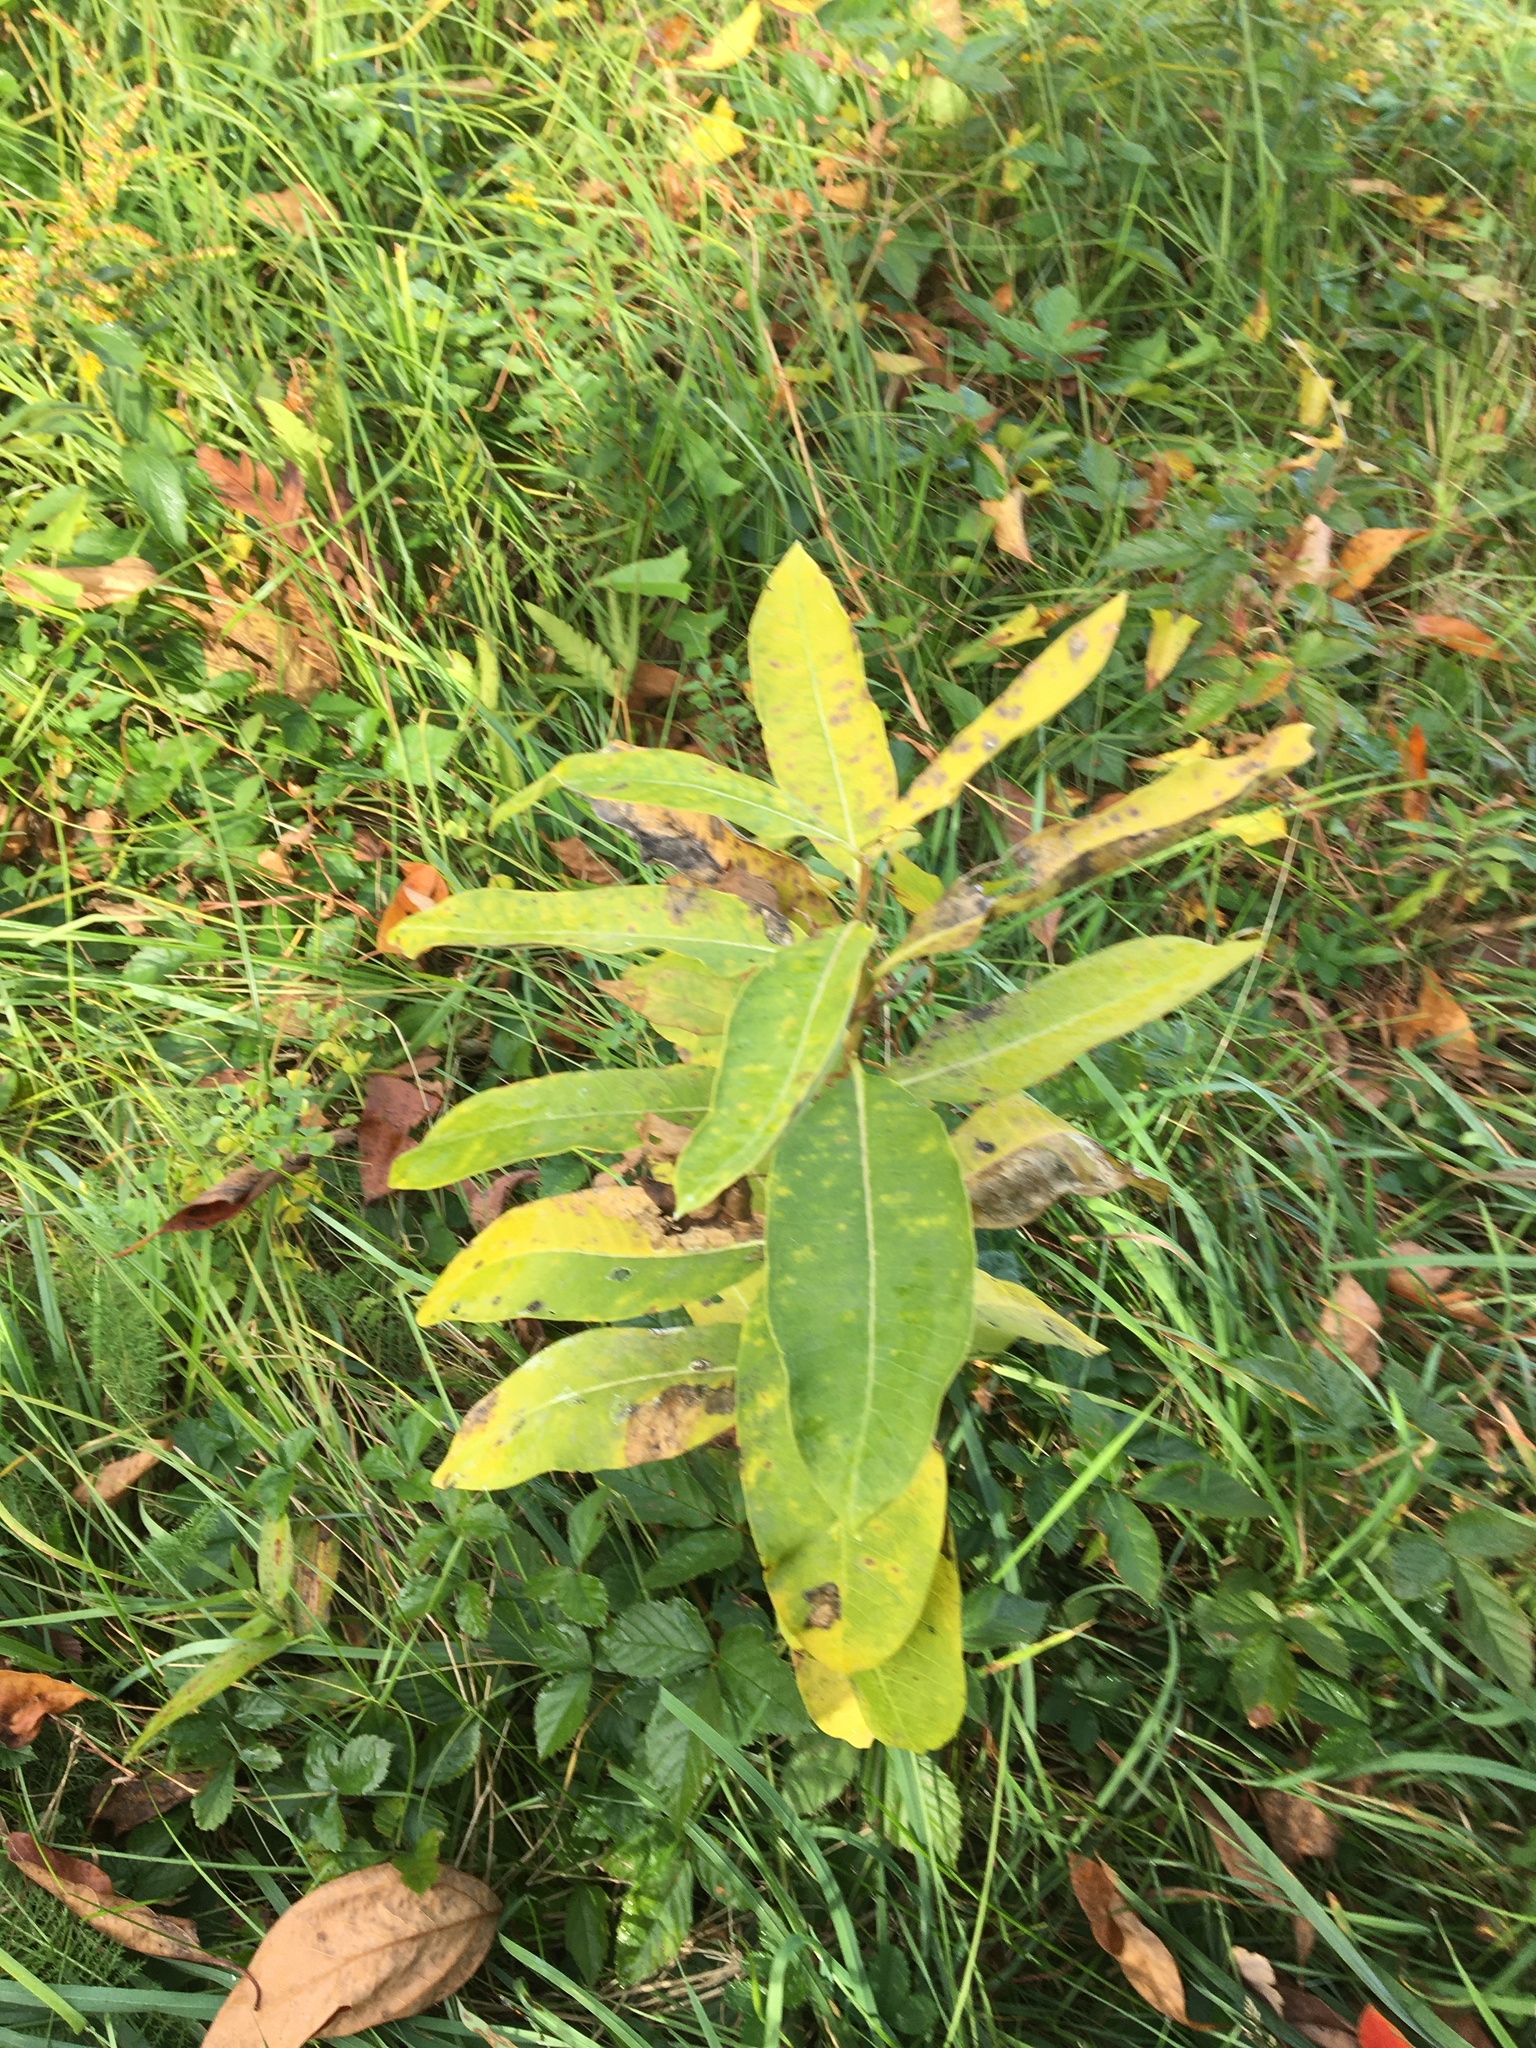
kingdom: Plantae
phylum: Tracheophyta
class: Magnoliopsida
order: Gentianales
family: Apocynaceae
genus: Asclepias
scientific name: Asclepias syriaca
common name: Common milkweed
